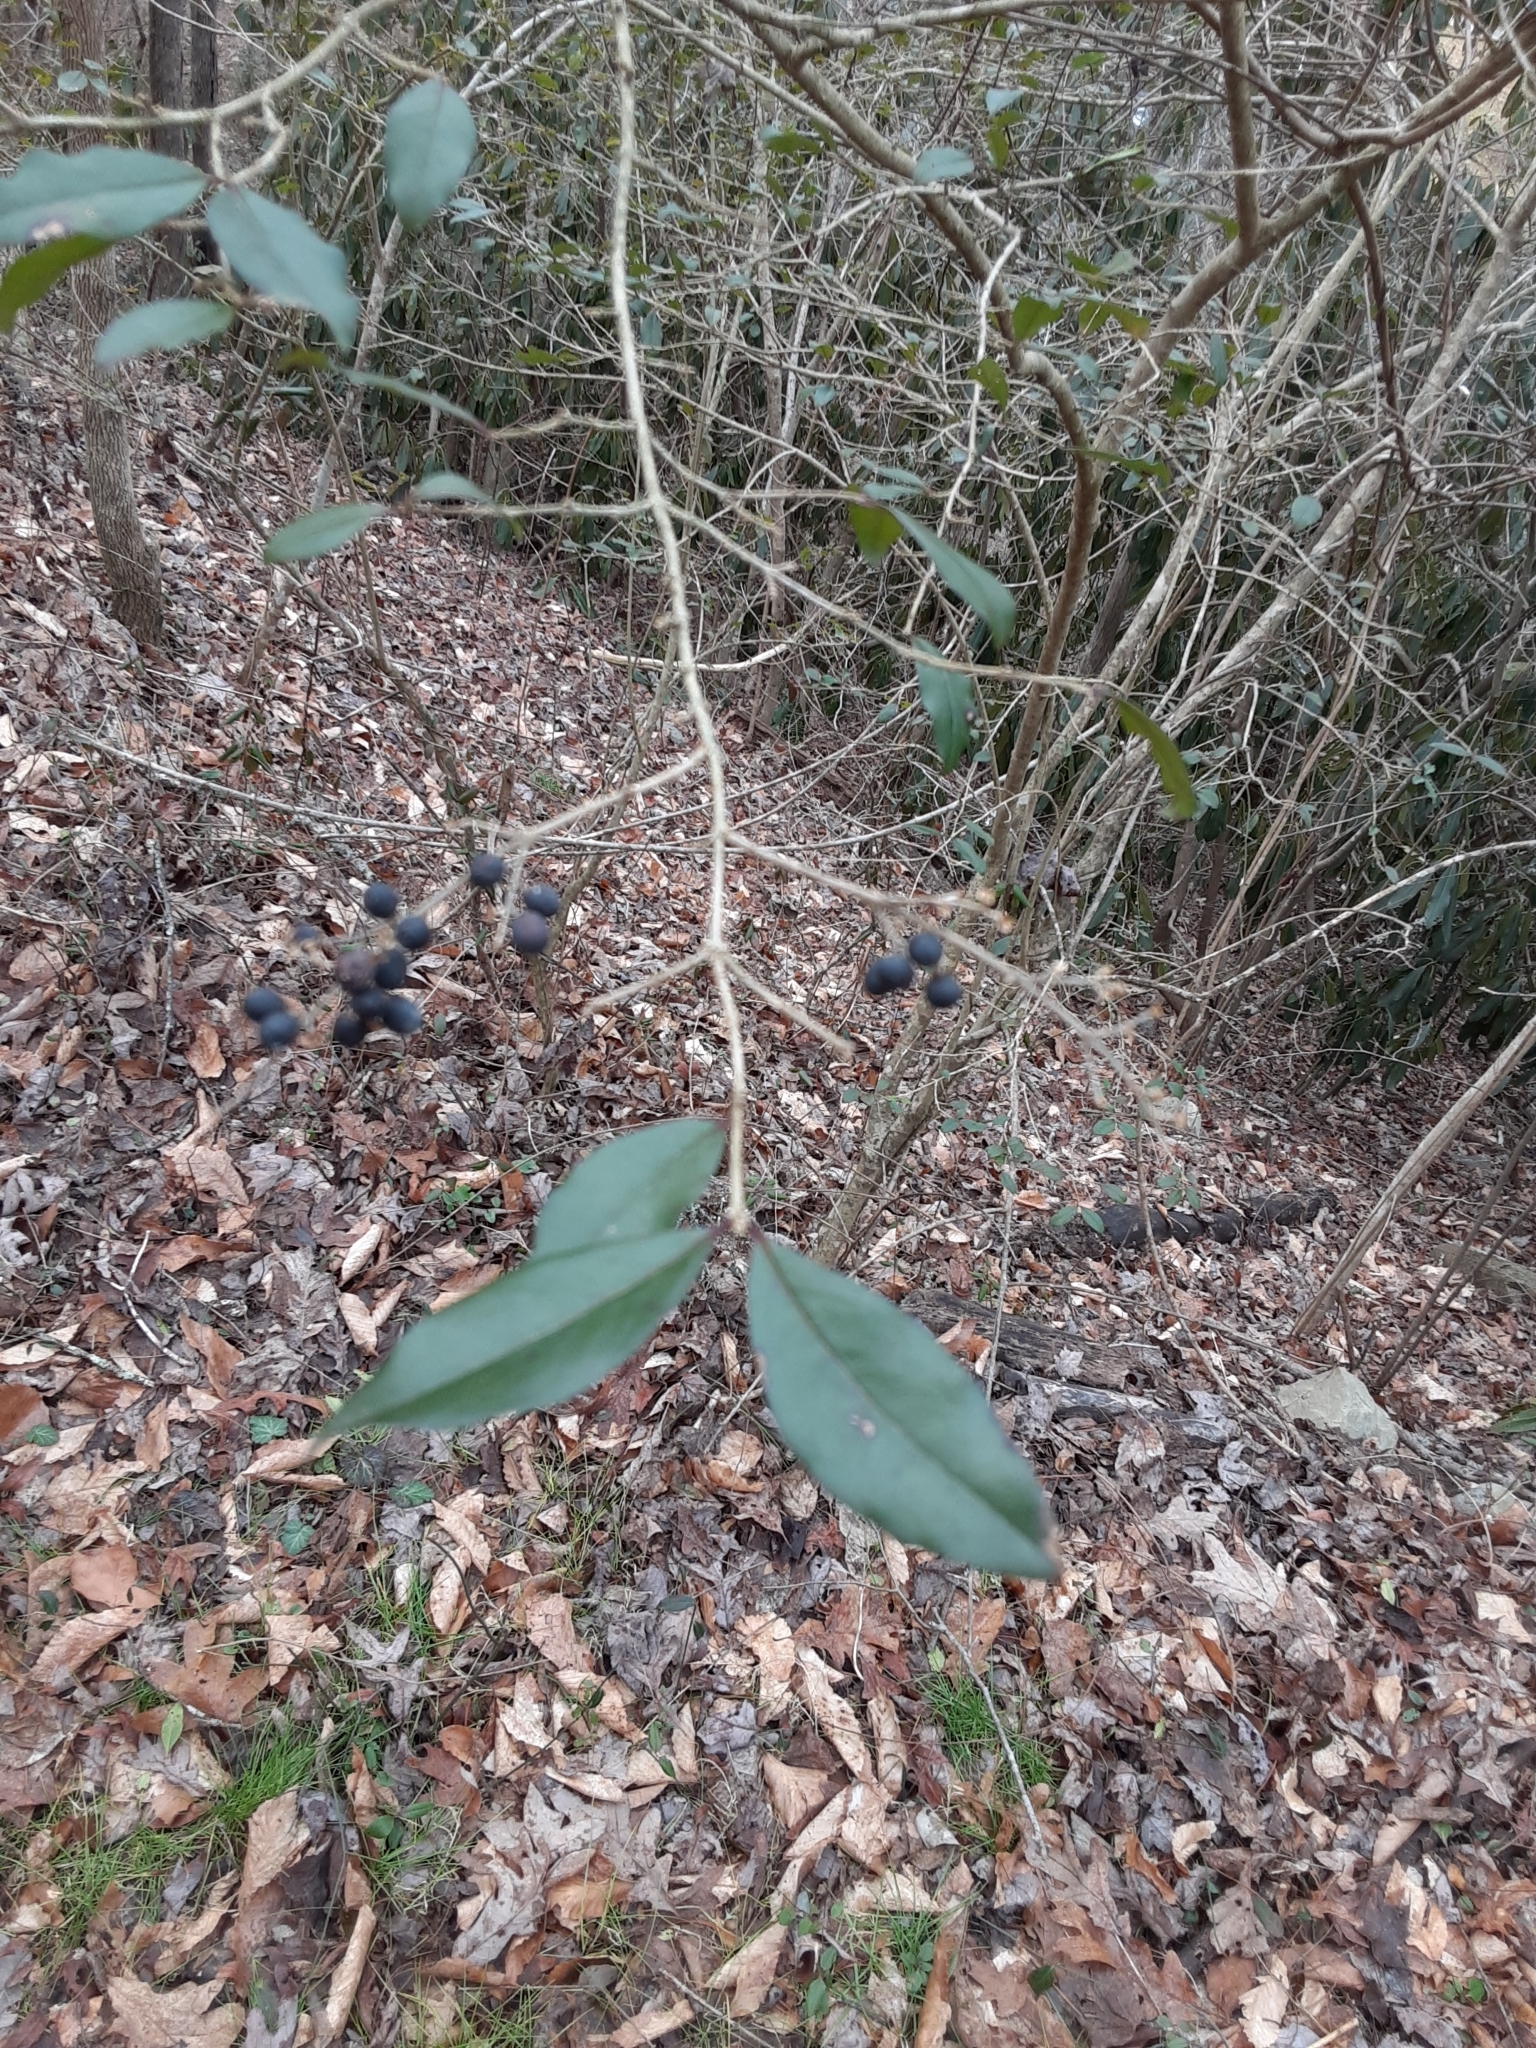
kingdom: Plantae
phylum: Tracheophyta
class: Magnoliopsida
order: Lamiales
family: Oleaceae
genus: Ligustrum
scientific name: Ligustrum sinense
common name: Chinese privet
